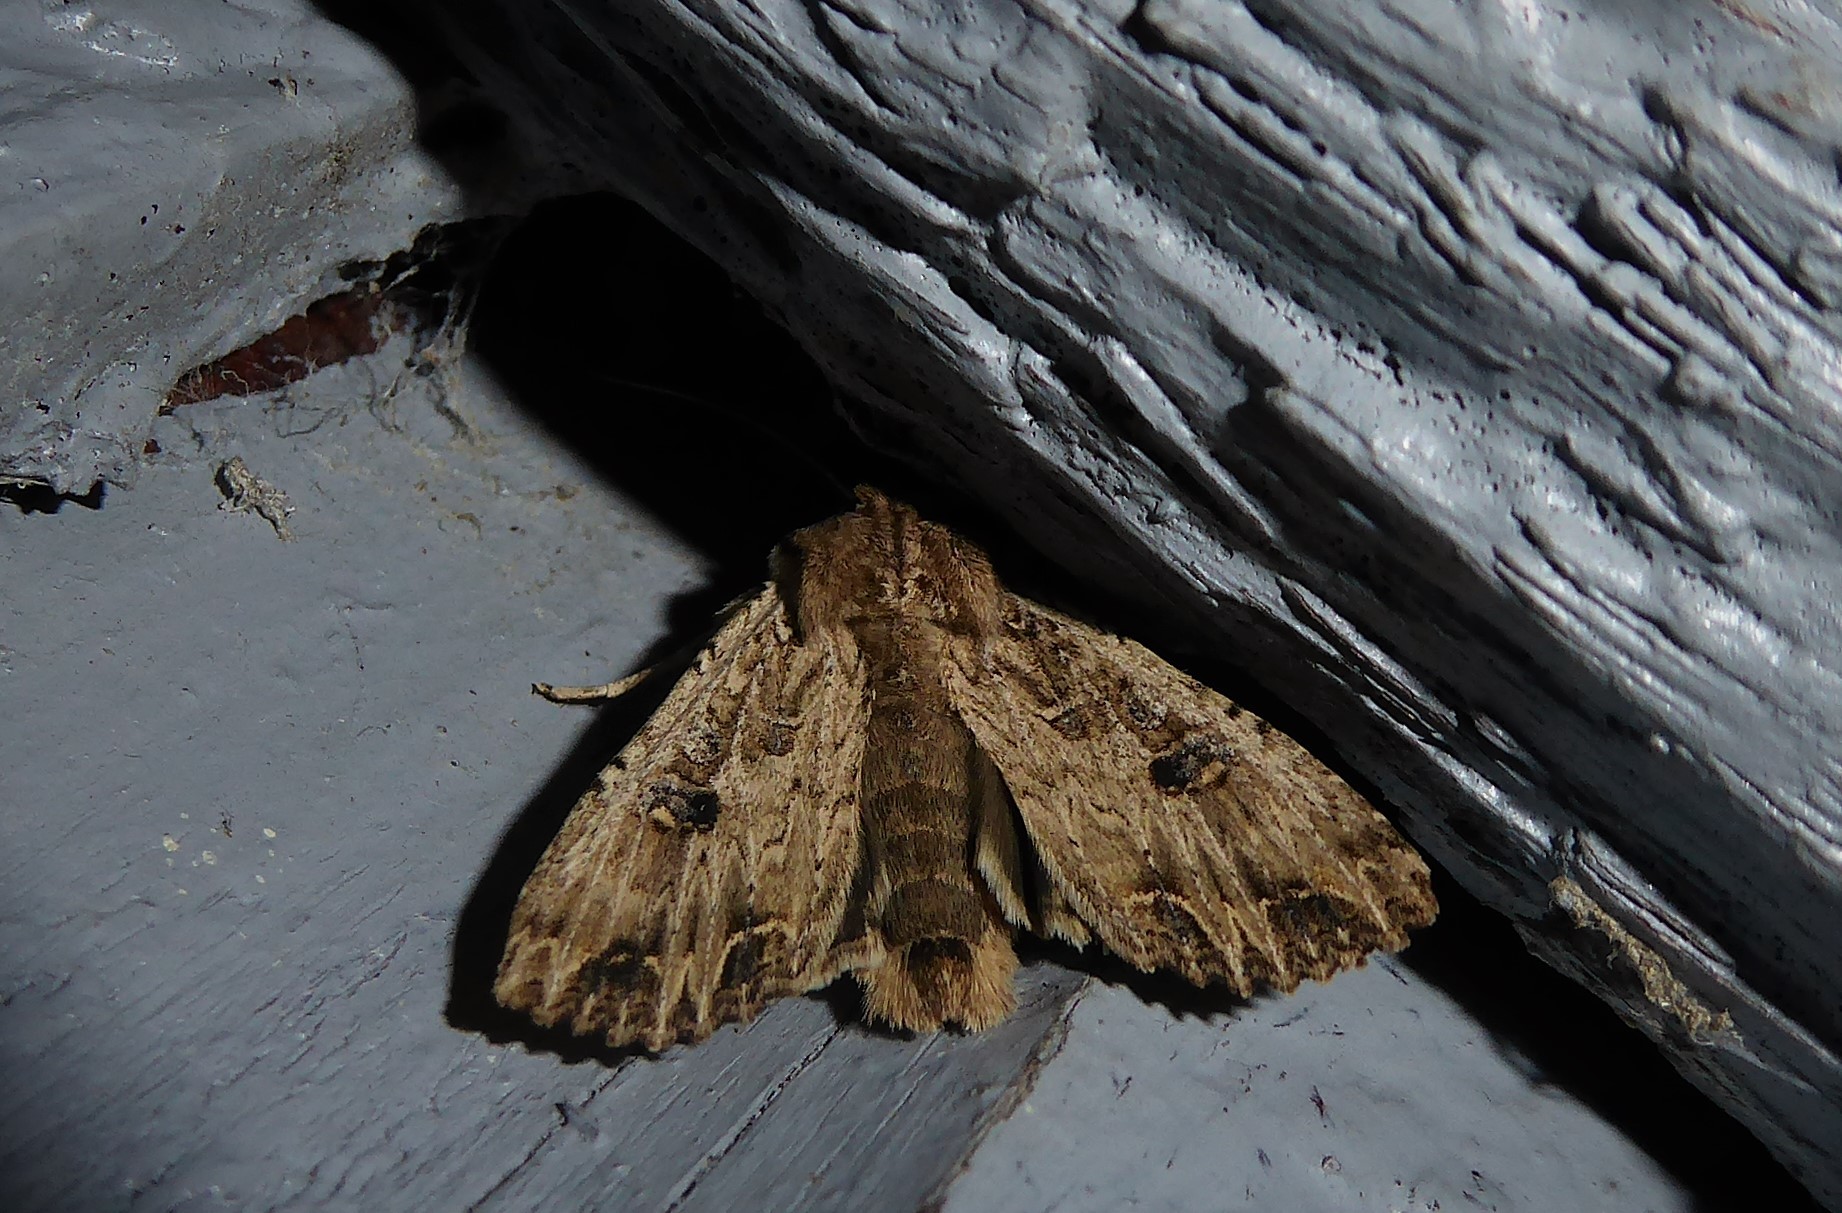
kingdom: Animalia
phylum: Arthropoda
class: Insecta
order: Lepidoptera
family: Noctuidae
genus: Ichneutica
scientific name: Ichneutica lignana
